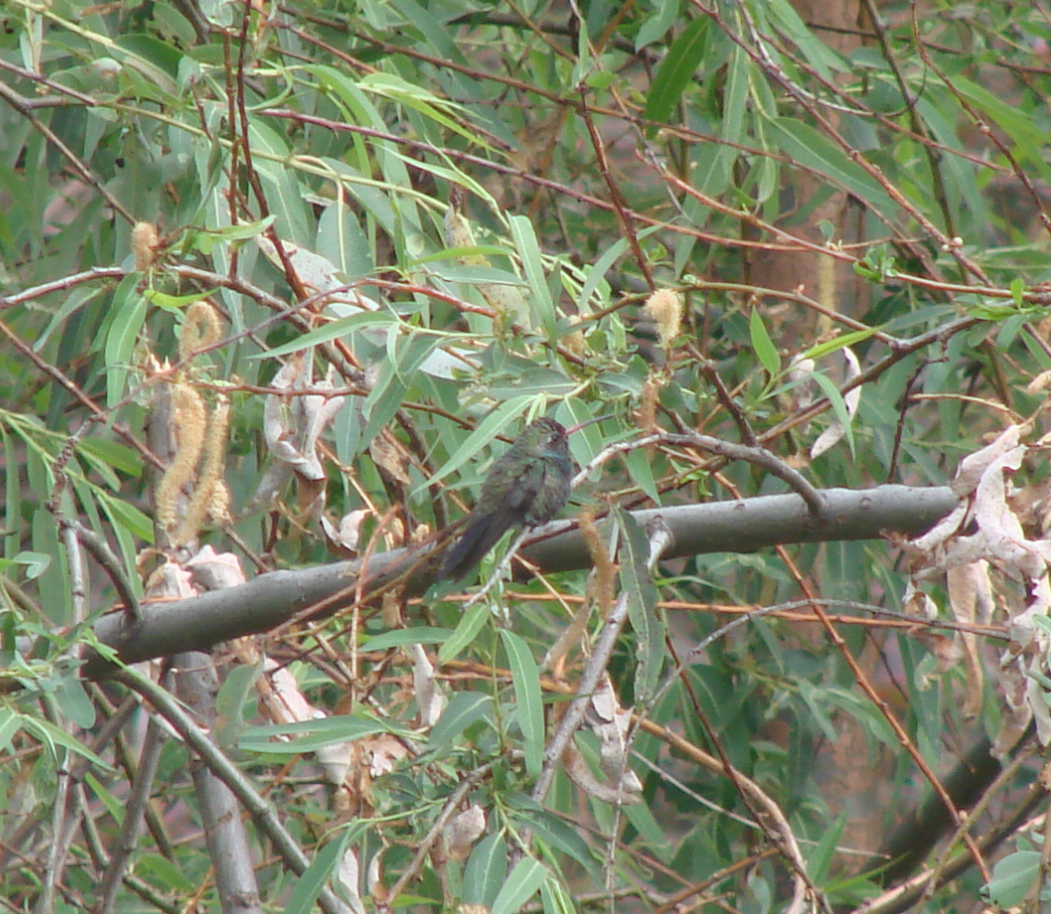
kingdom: Animalia
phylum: Chordata
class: Aves
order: Apodiformes
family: Trochilidae
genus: Cynanthus
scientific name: Cynanthus latirostris
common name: Broad-billed hummingbird
